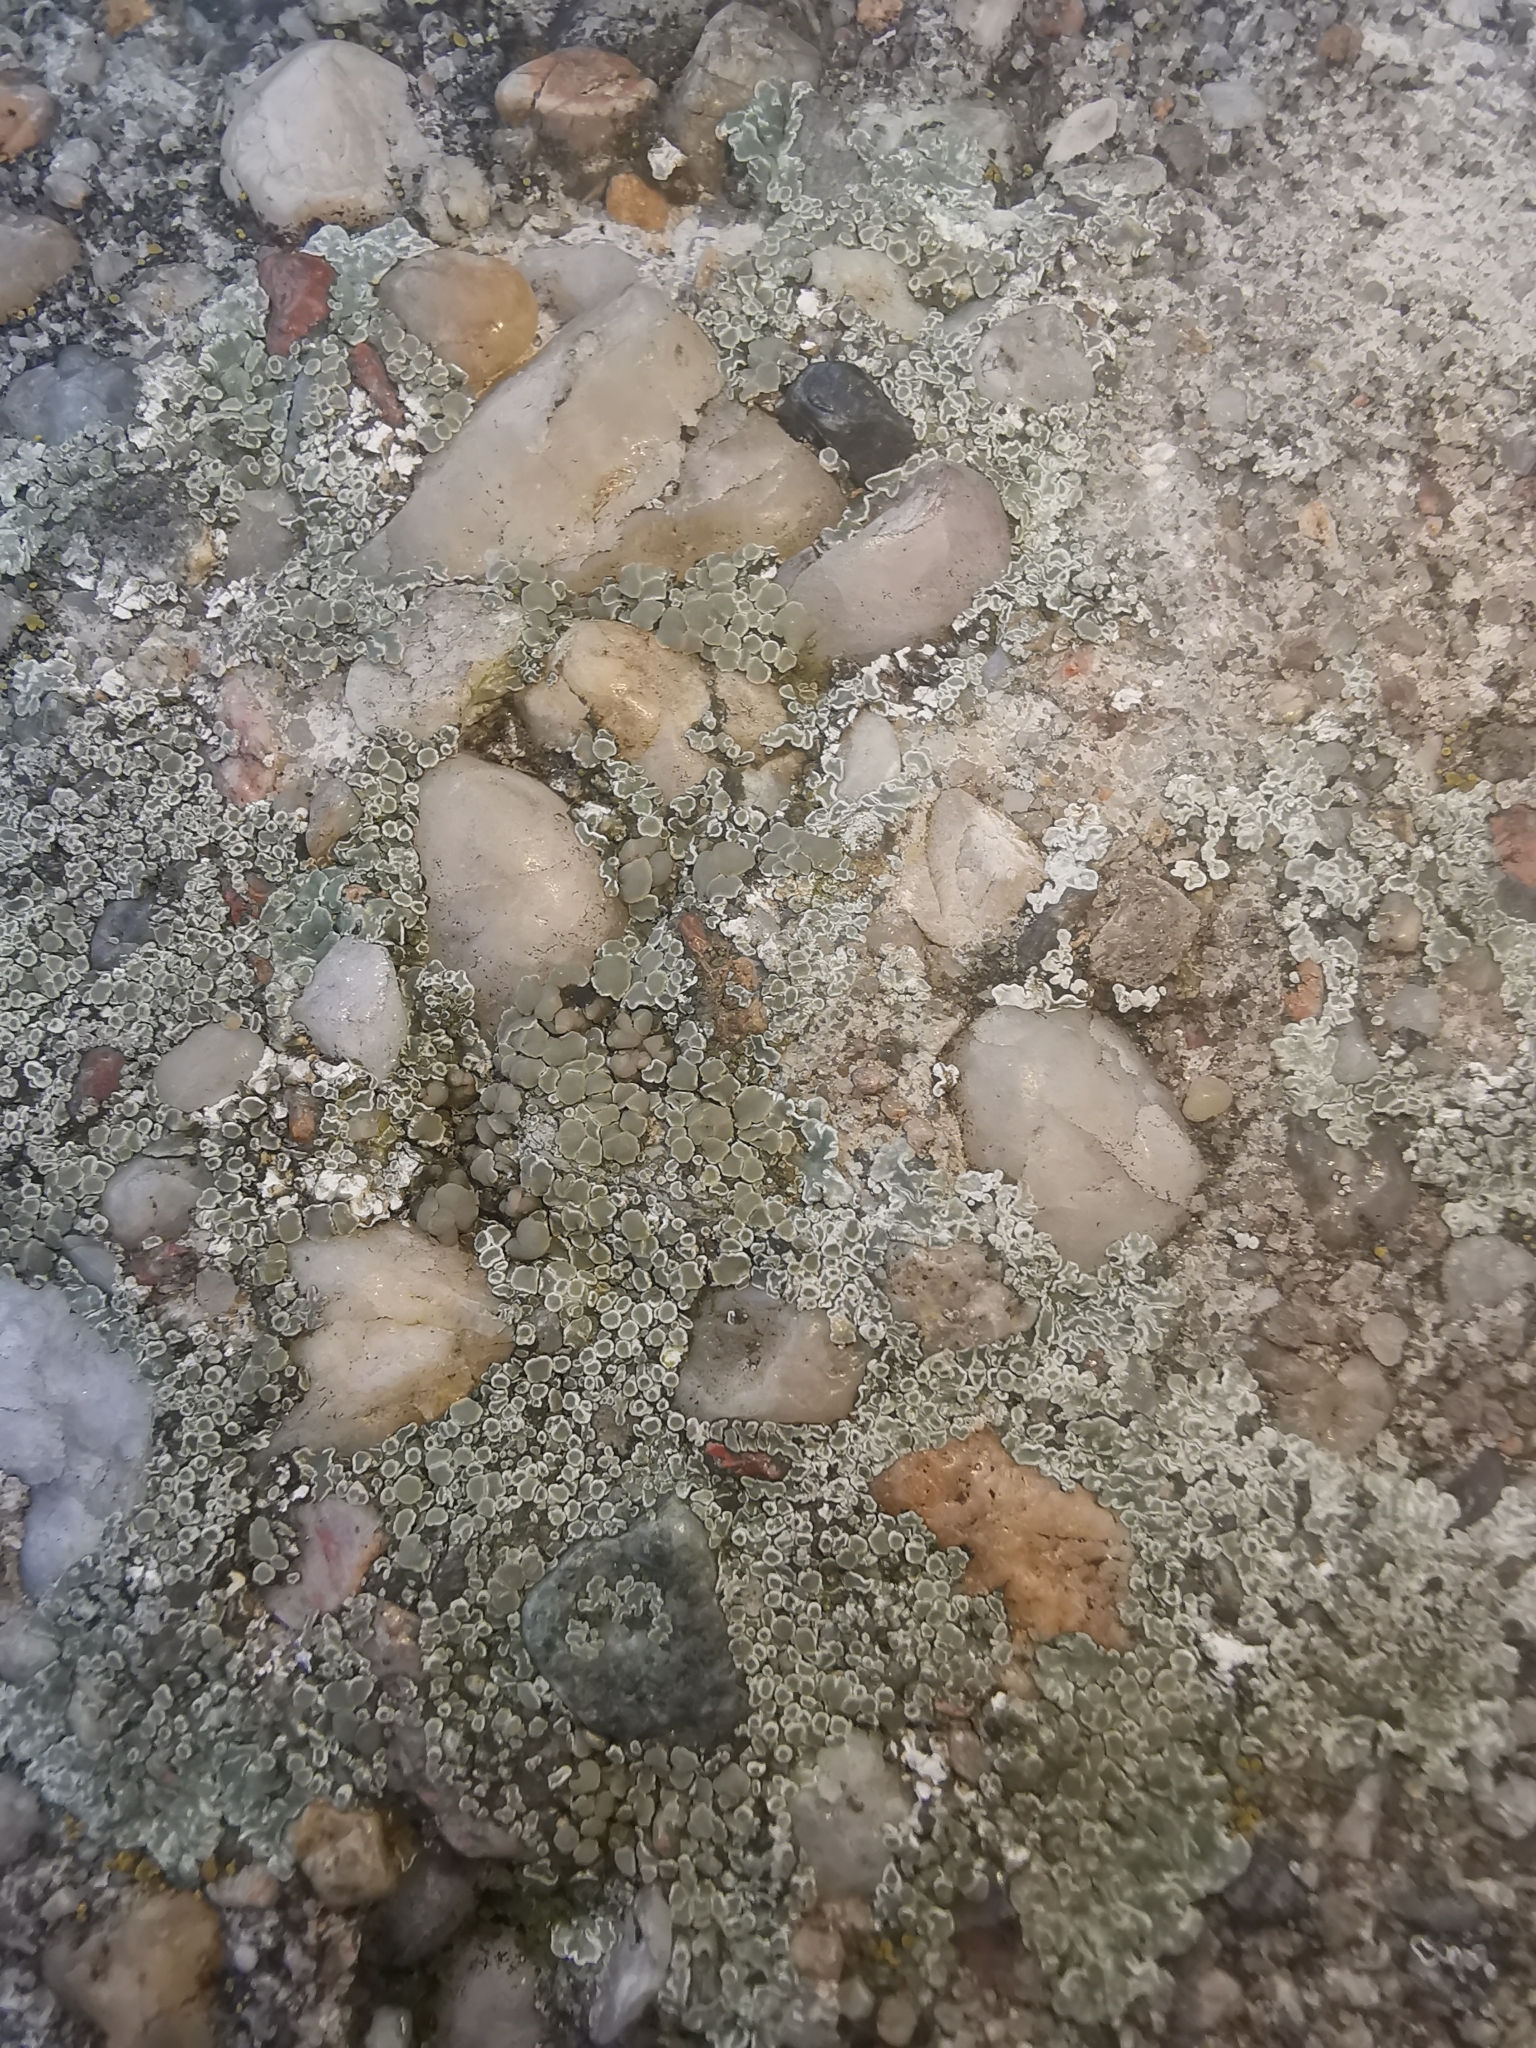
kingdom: Fungi
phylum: Ascomycota
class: Lecanoromycetes
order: Lecanorales
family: Lecanoraceae
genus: Protoparmeliopsis
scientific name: Protoparmeliopsis muralis
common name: Stonewall rim lichen
